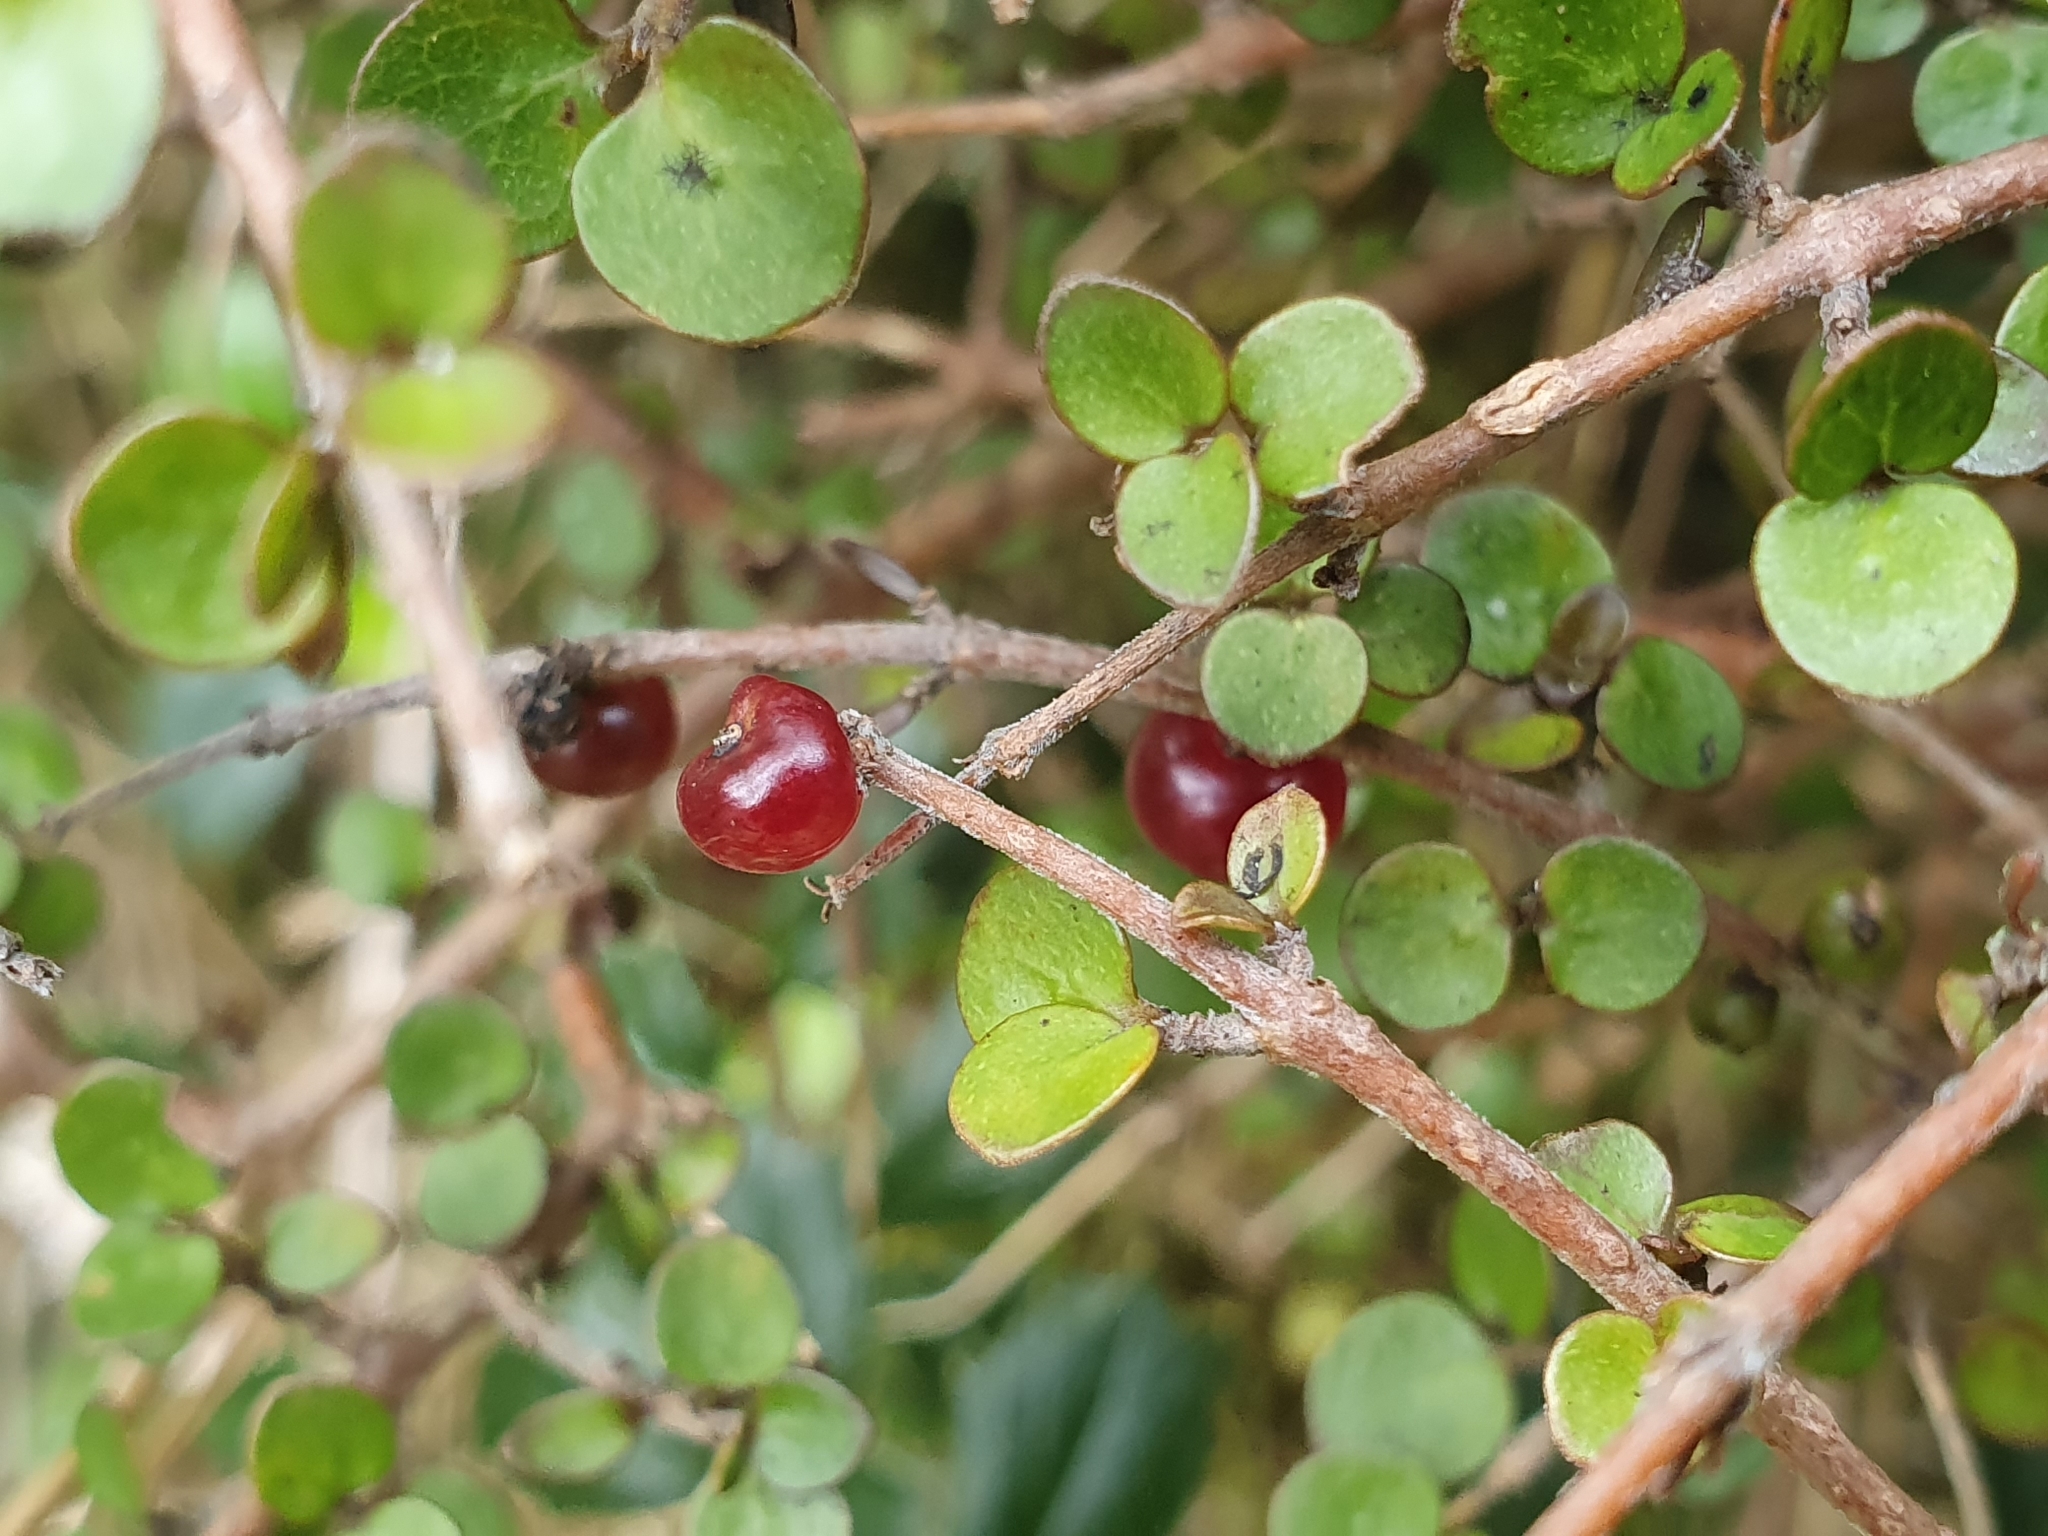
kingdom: Plantae
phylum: Tracheophyta
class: Magnoliopsida
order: Gentianales
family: Rubiaceae
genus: Coprosma
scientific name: Coprosma rhamnoides
